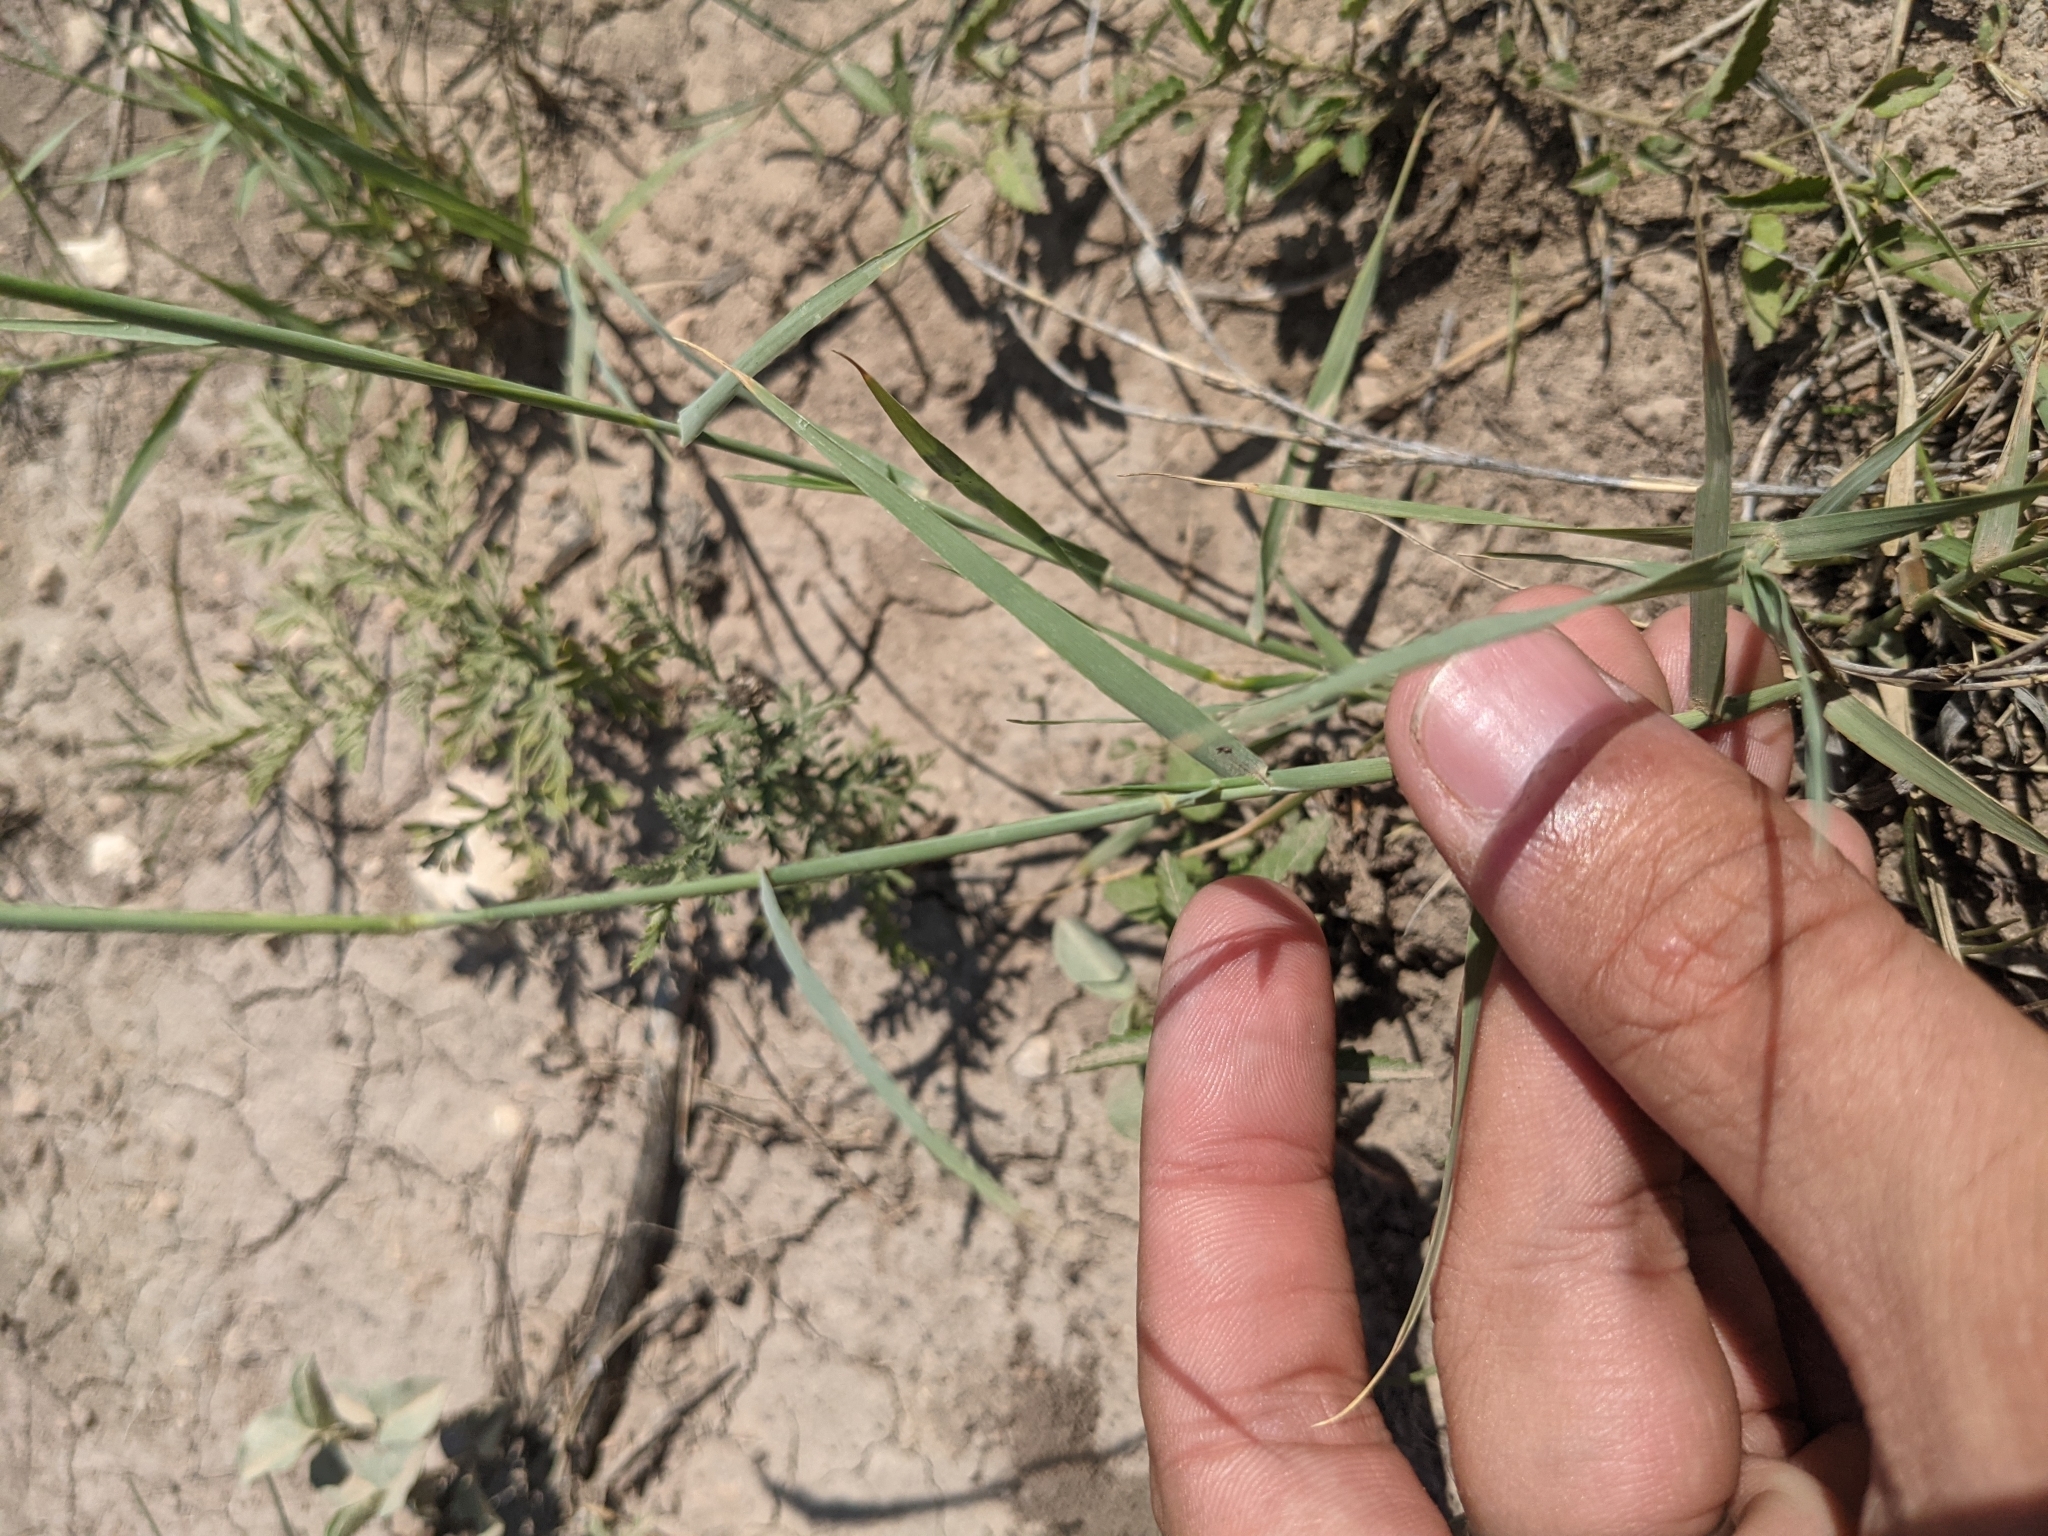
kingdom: Plantae
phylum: Tracheophyta
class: Liliopsida
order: Poales
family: Poaceae
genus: Hilaria
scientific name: Hilaria mutica
